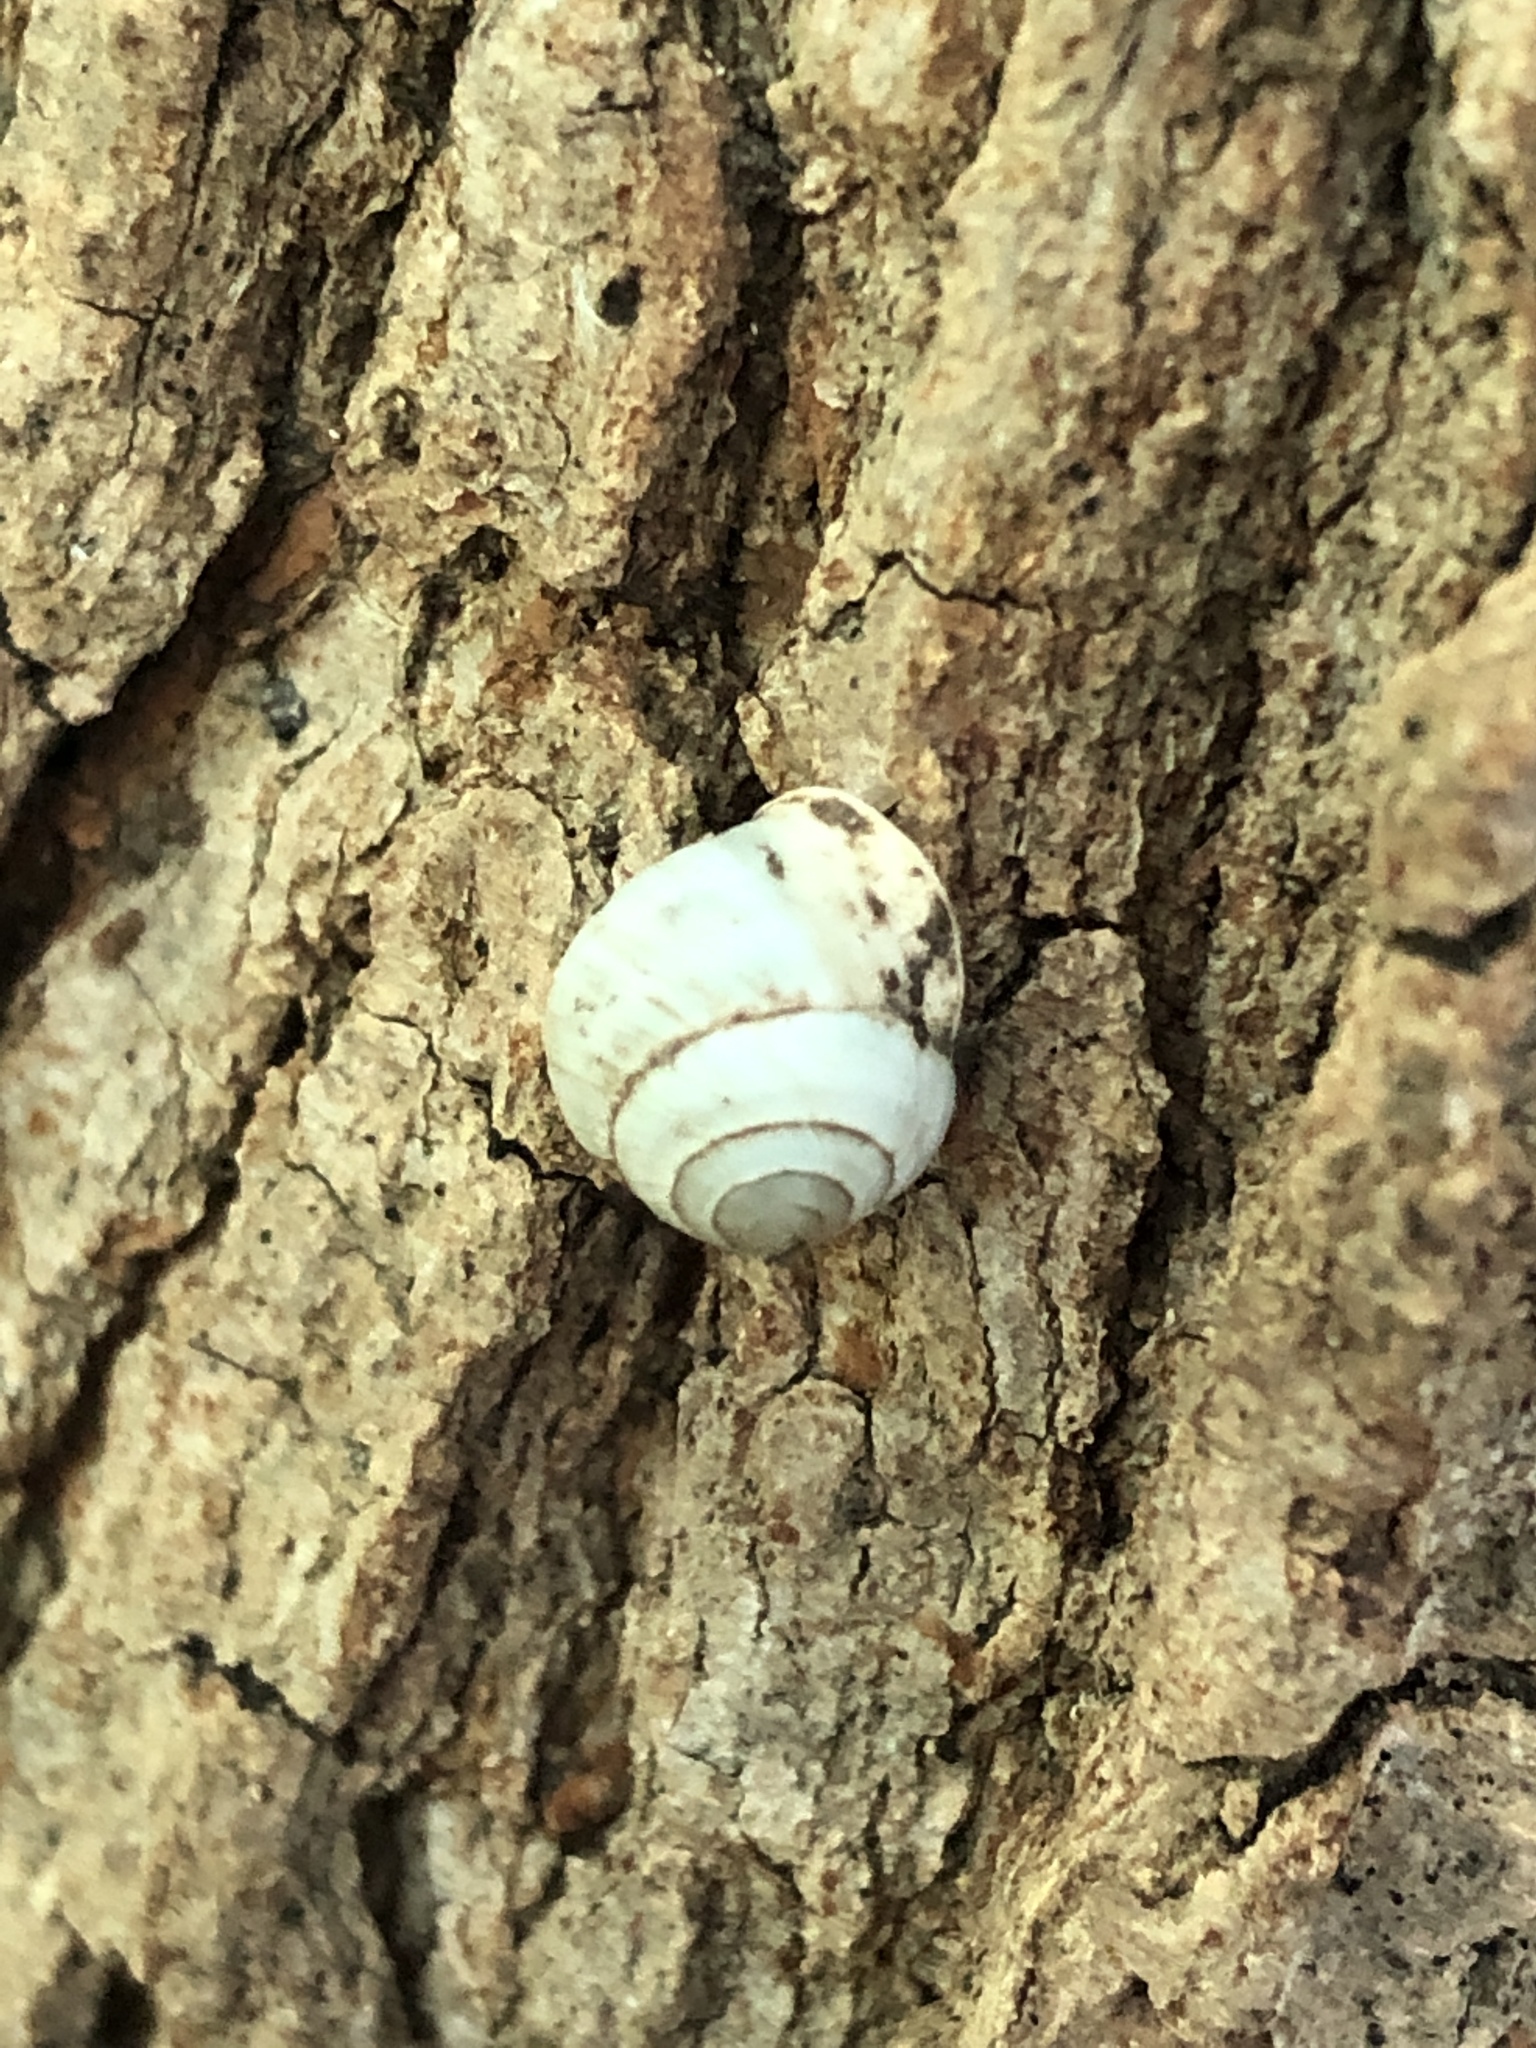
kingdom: Animalia
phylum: Mollusca
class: Gastropoda
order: Cycloneritida
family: Helicinidae
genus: Helicina
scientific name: Helicina orbiculata
